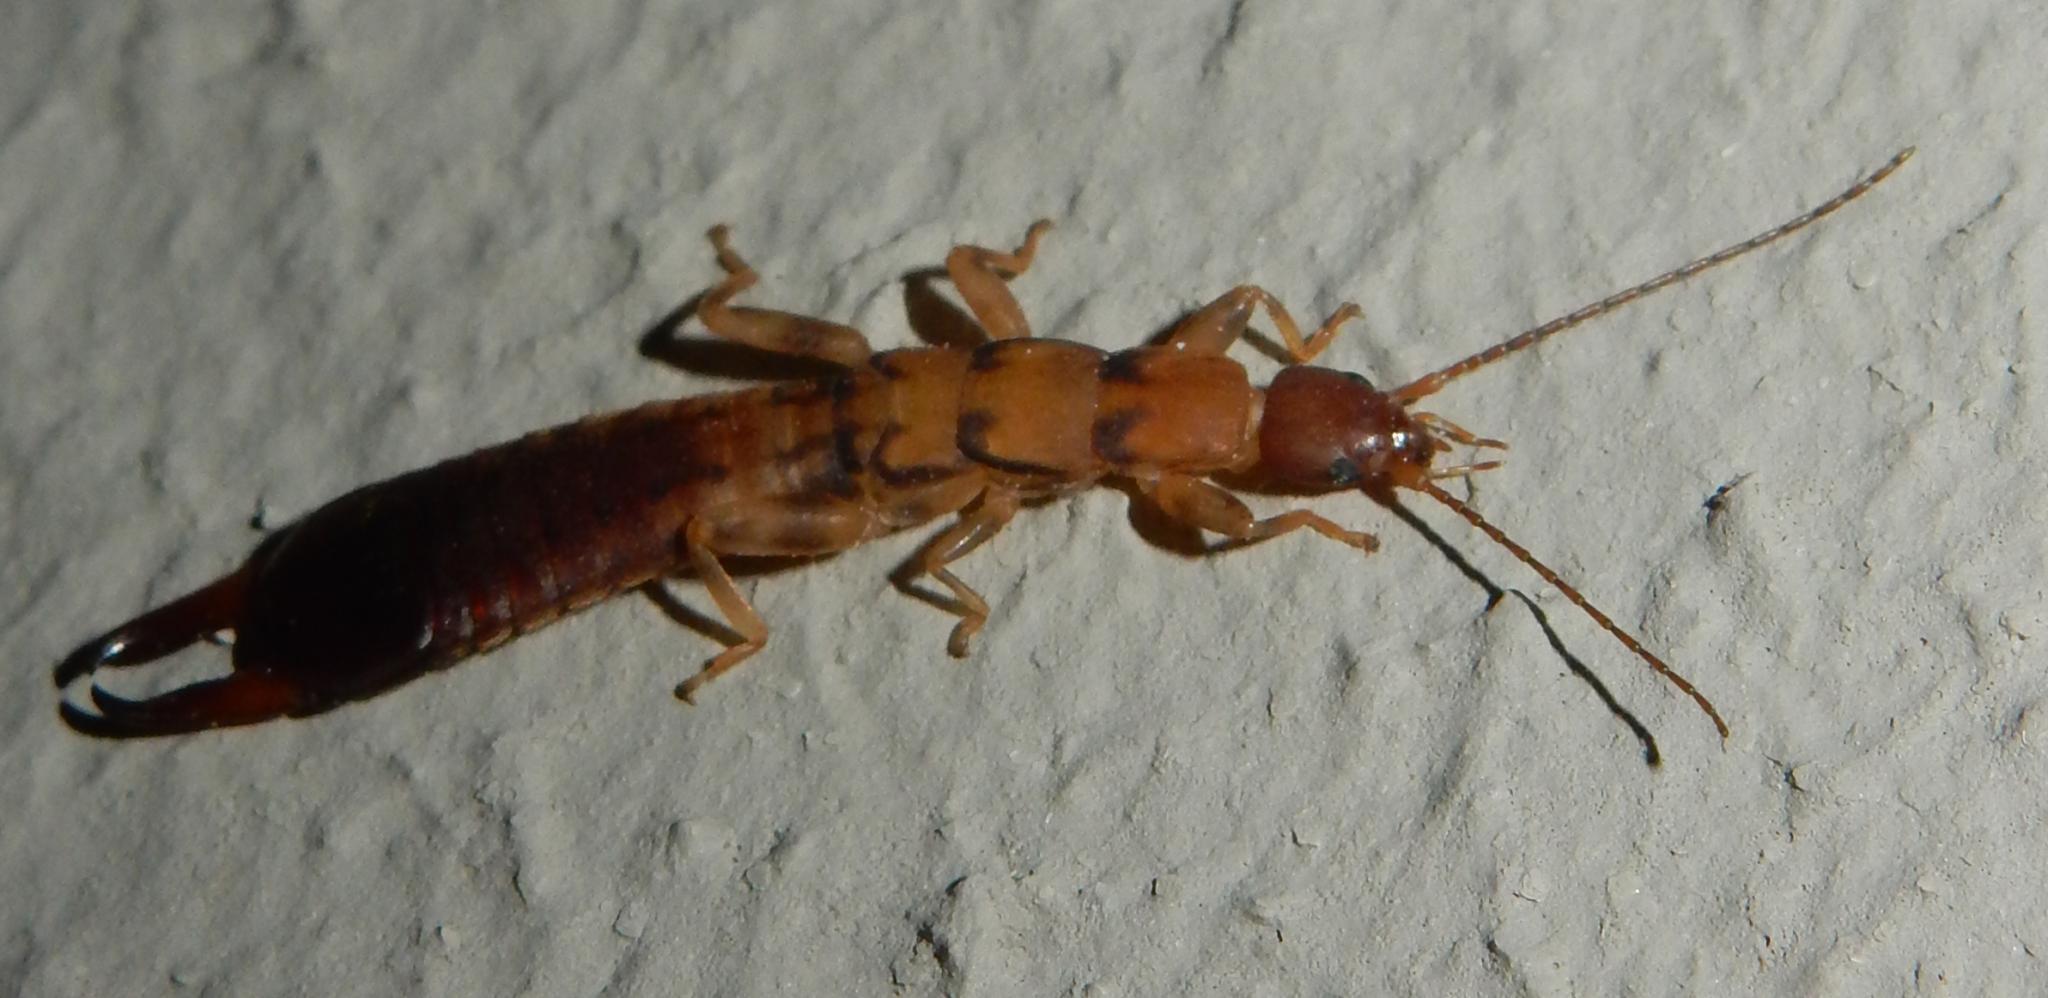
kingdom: Animalia
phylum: Arthropoda
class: Insecta
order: Dermaptera
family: Pygidicranidae
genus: Blandex
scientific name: Blandex variegatus
